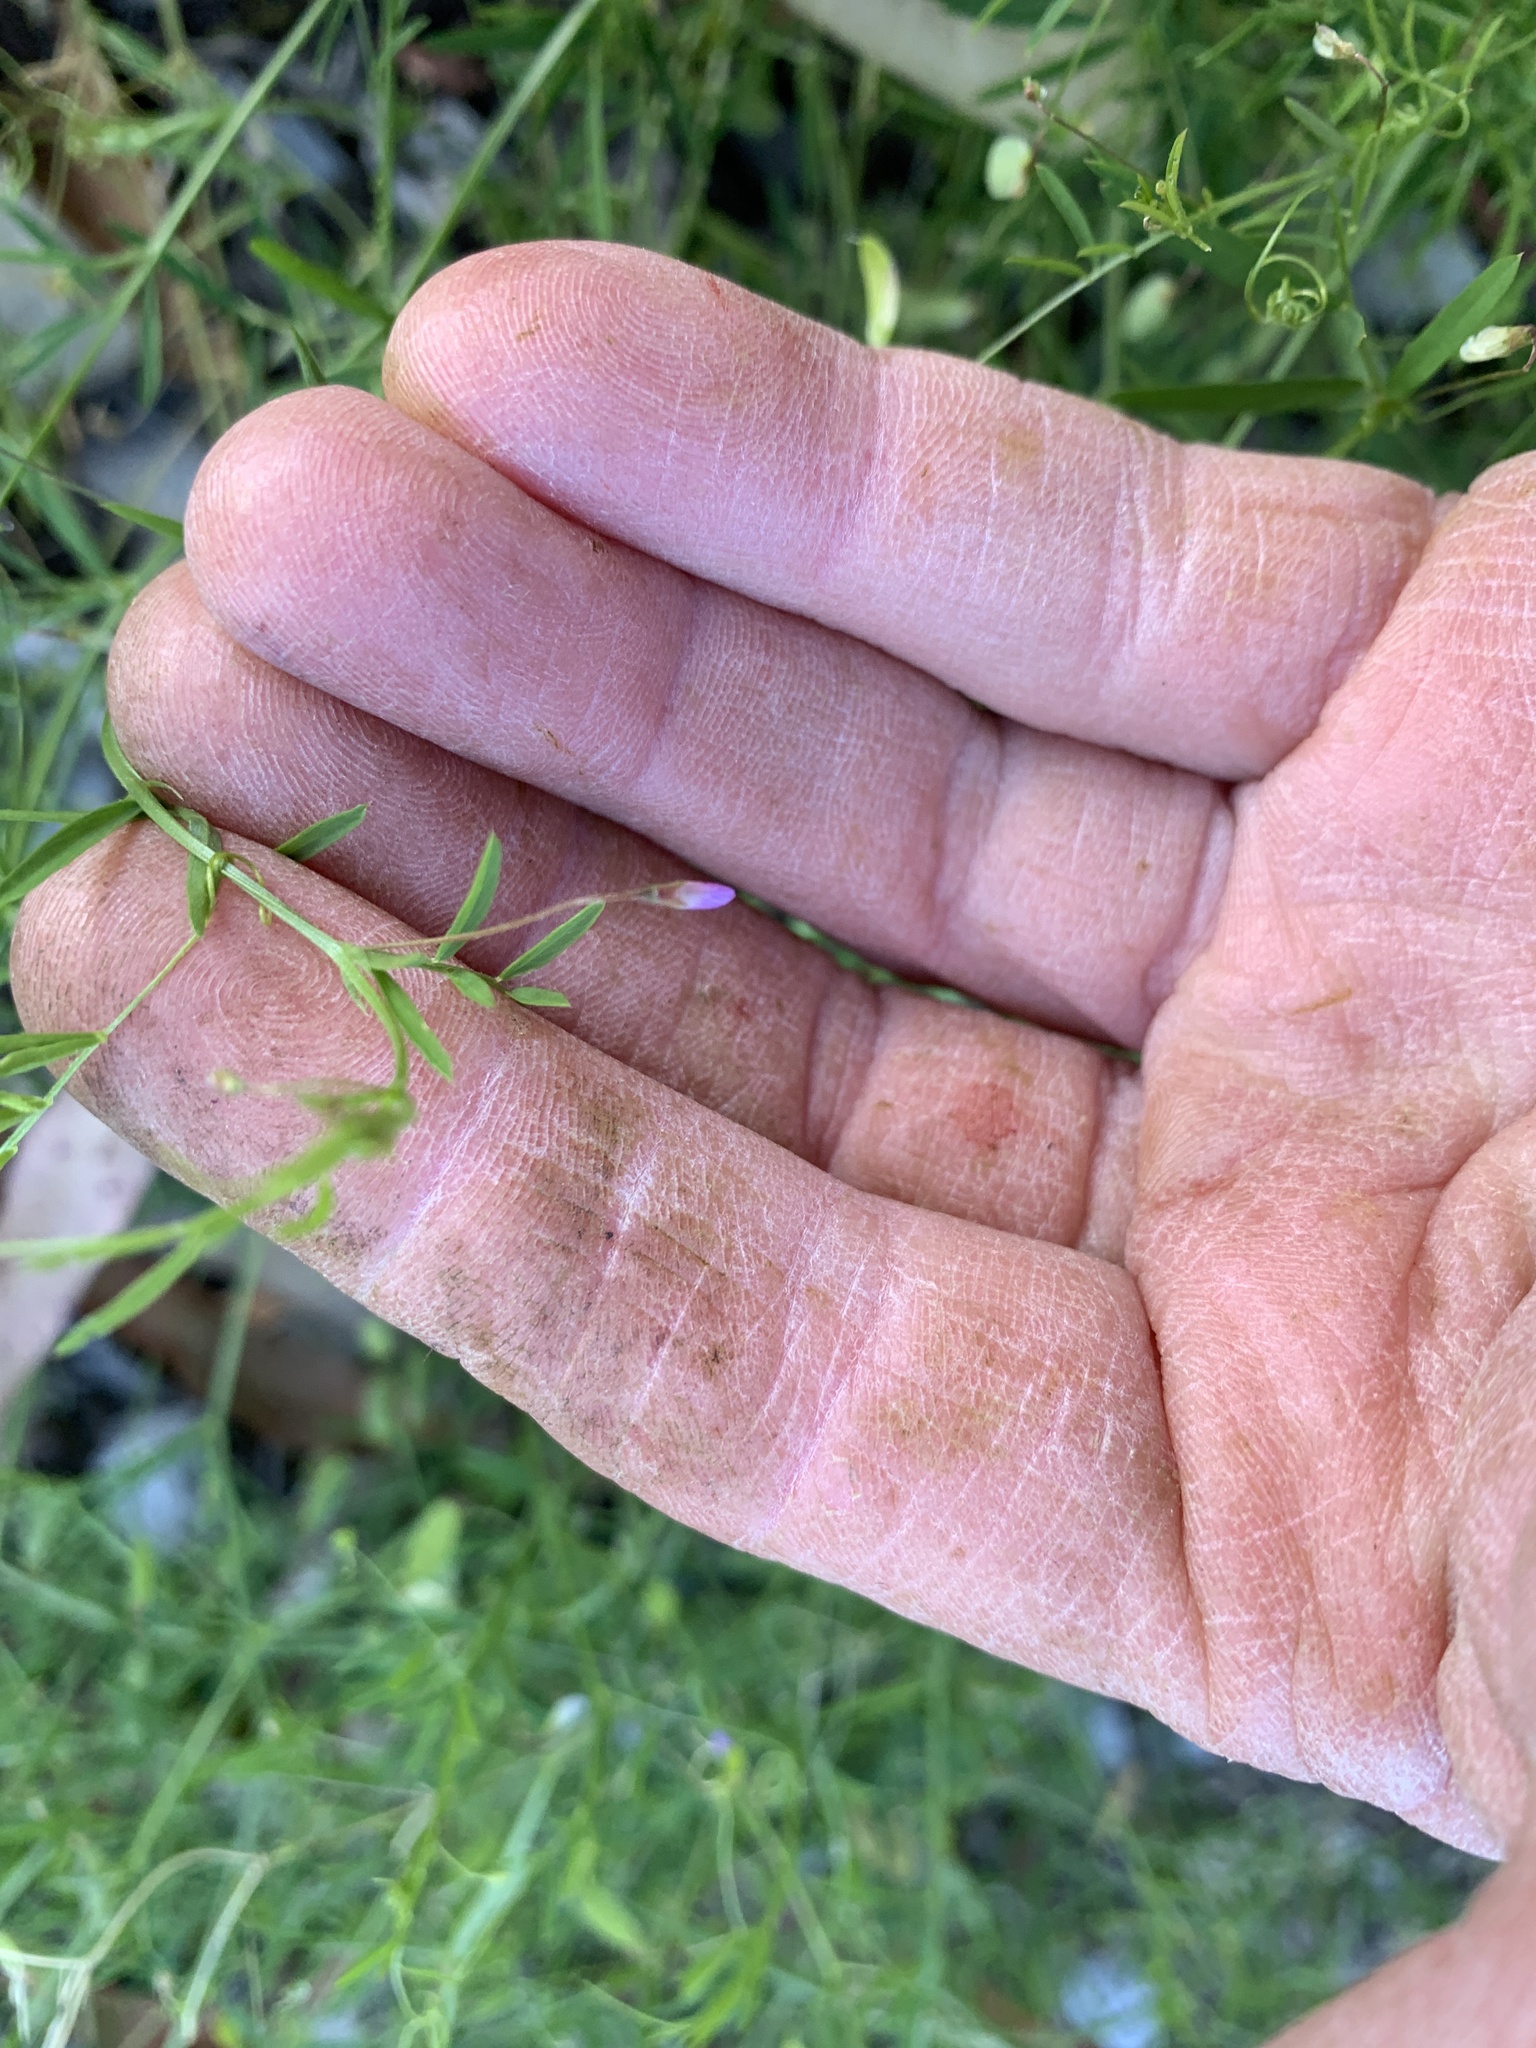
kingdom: Plantae
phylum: Tracheophyta
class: Magnoliopsida
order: Fabales
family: Fabaceae
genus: Vicia
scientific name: Vicia tetrasperma
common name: Smooth tare
